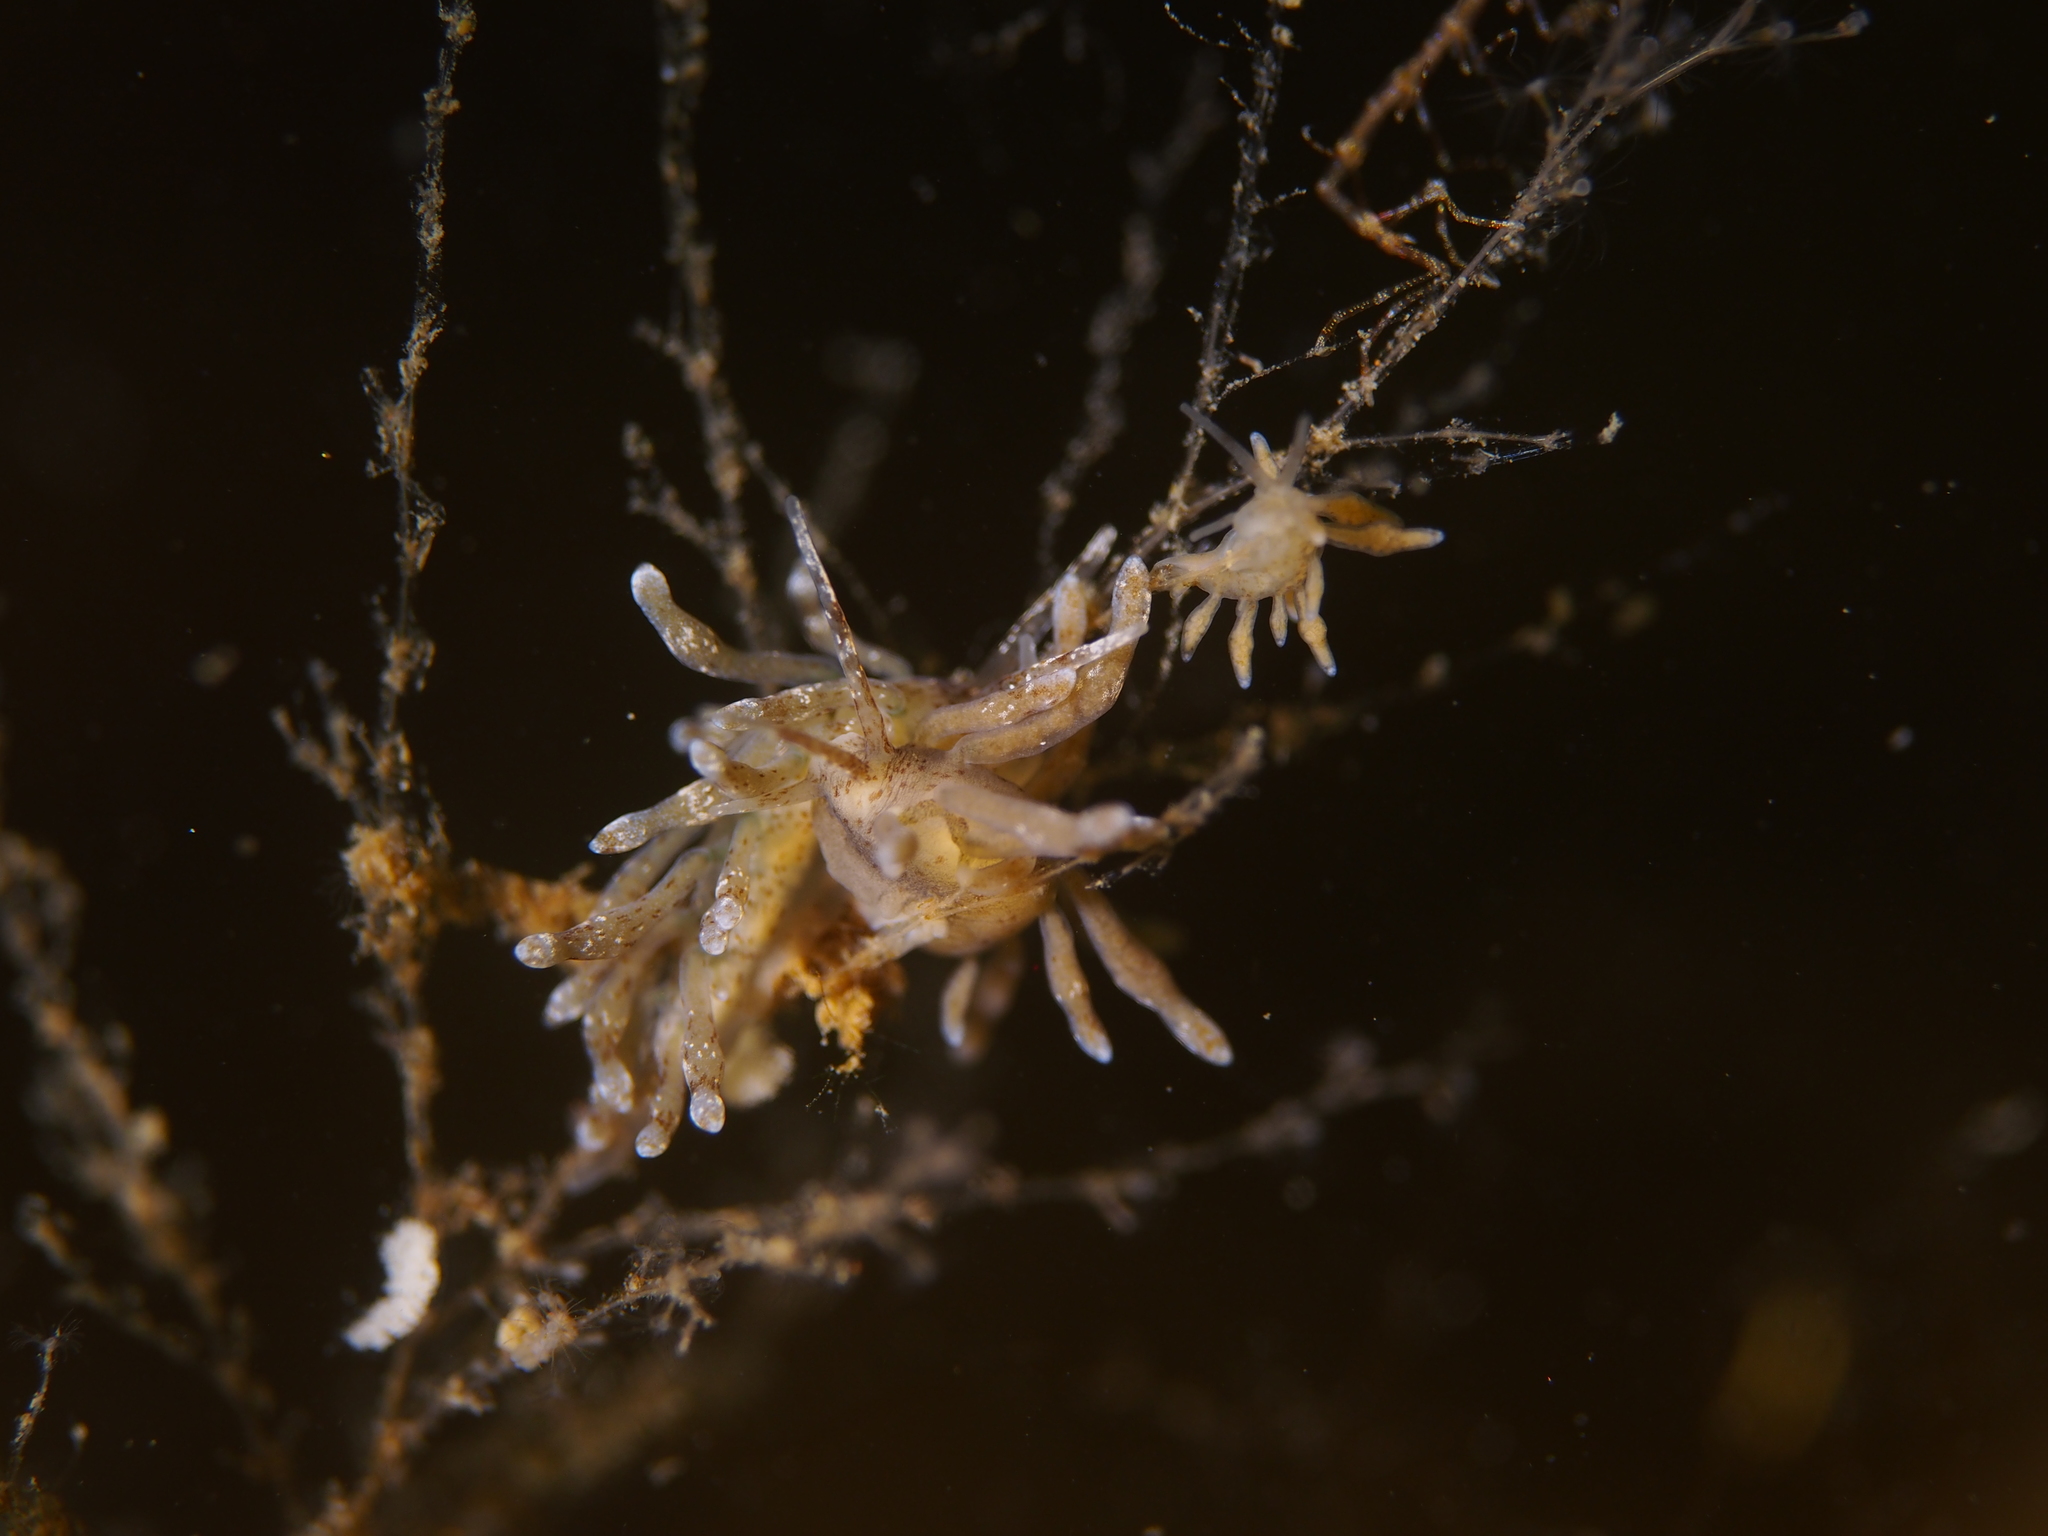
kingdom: Animalia
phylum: Mollusca
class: Gastropoda
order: Nudibranchia
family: Eubranchidae
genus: Eubranchus
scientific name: Eubranchus exiguus
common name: Balloon aeolis
